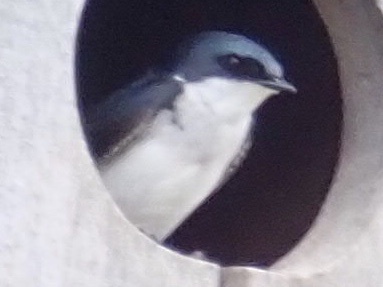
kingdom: Animalia
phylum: Chordata
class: Aves
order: Passeriformes
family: Hirundinidae
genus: Tachycineta
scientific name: Tachycineta bicolor
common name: Tree swallow
